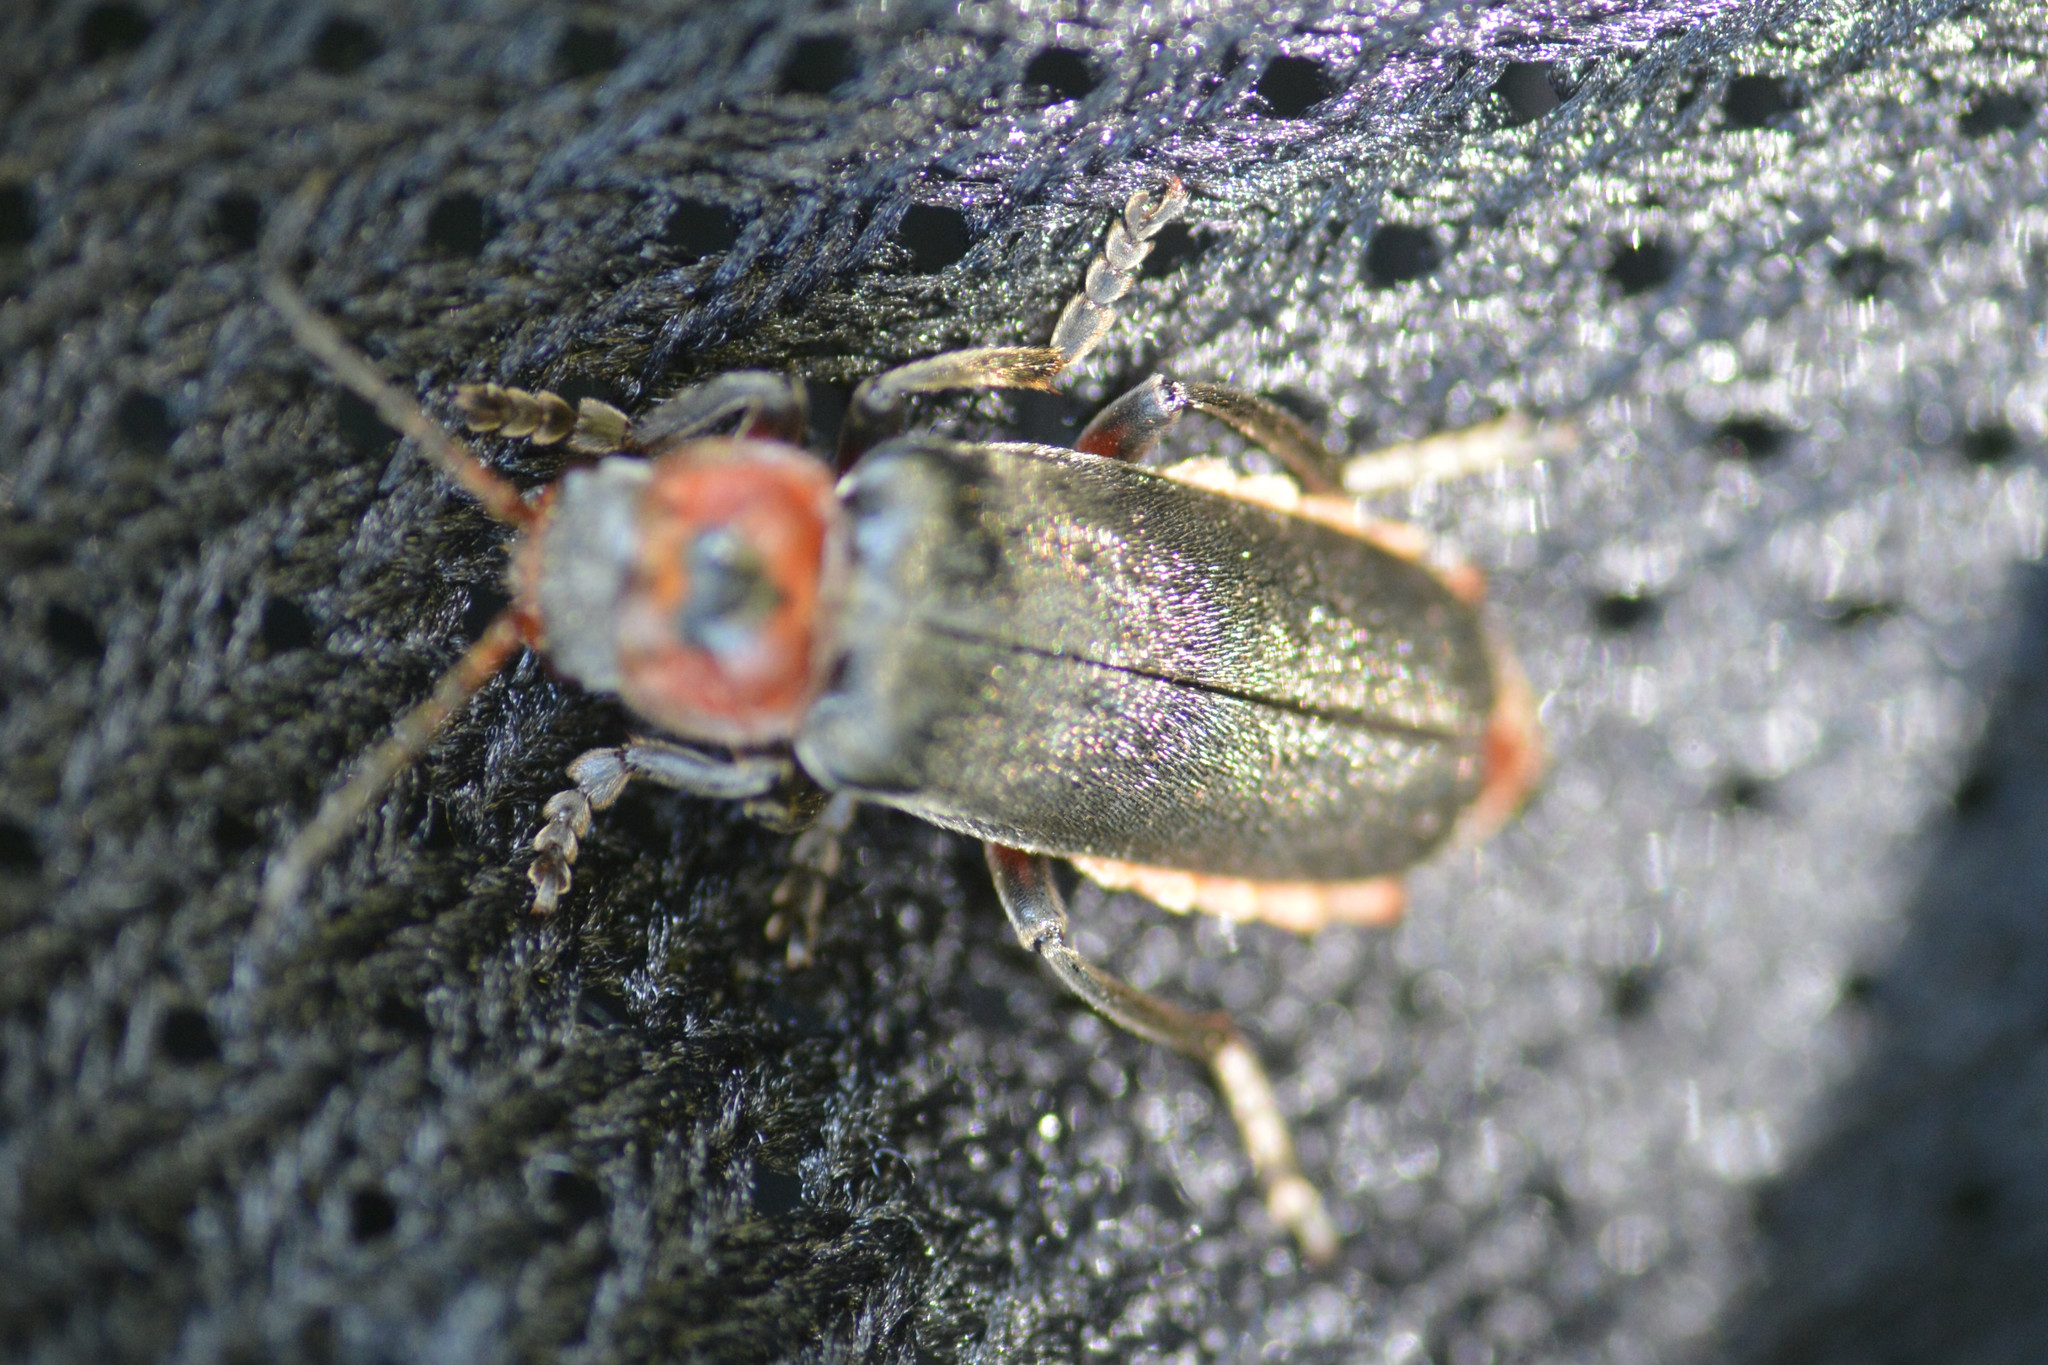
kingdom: Animalia
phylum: Arthropoda
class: Insecta
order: Coleoptera
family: Cantharidae
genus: Cantharis
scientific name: Cantharis rustica
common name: Soldier beetle
